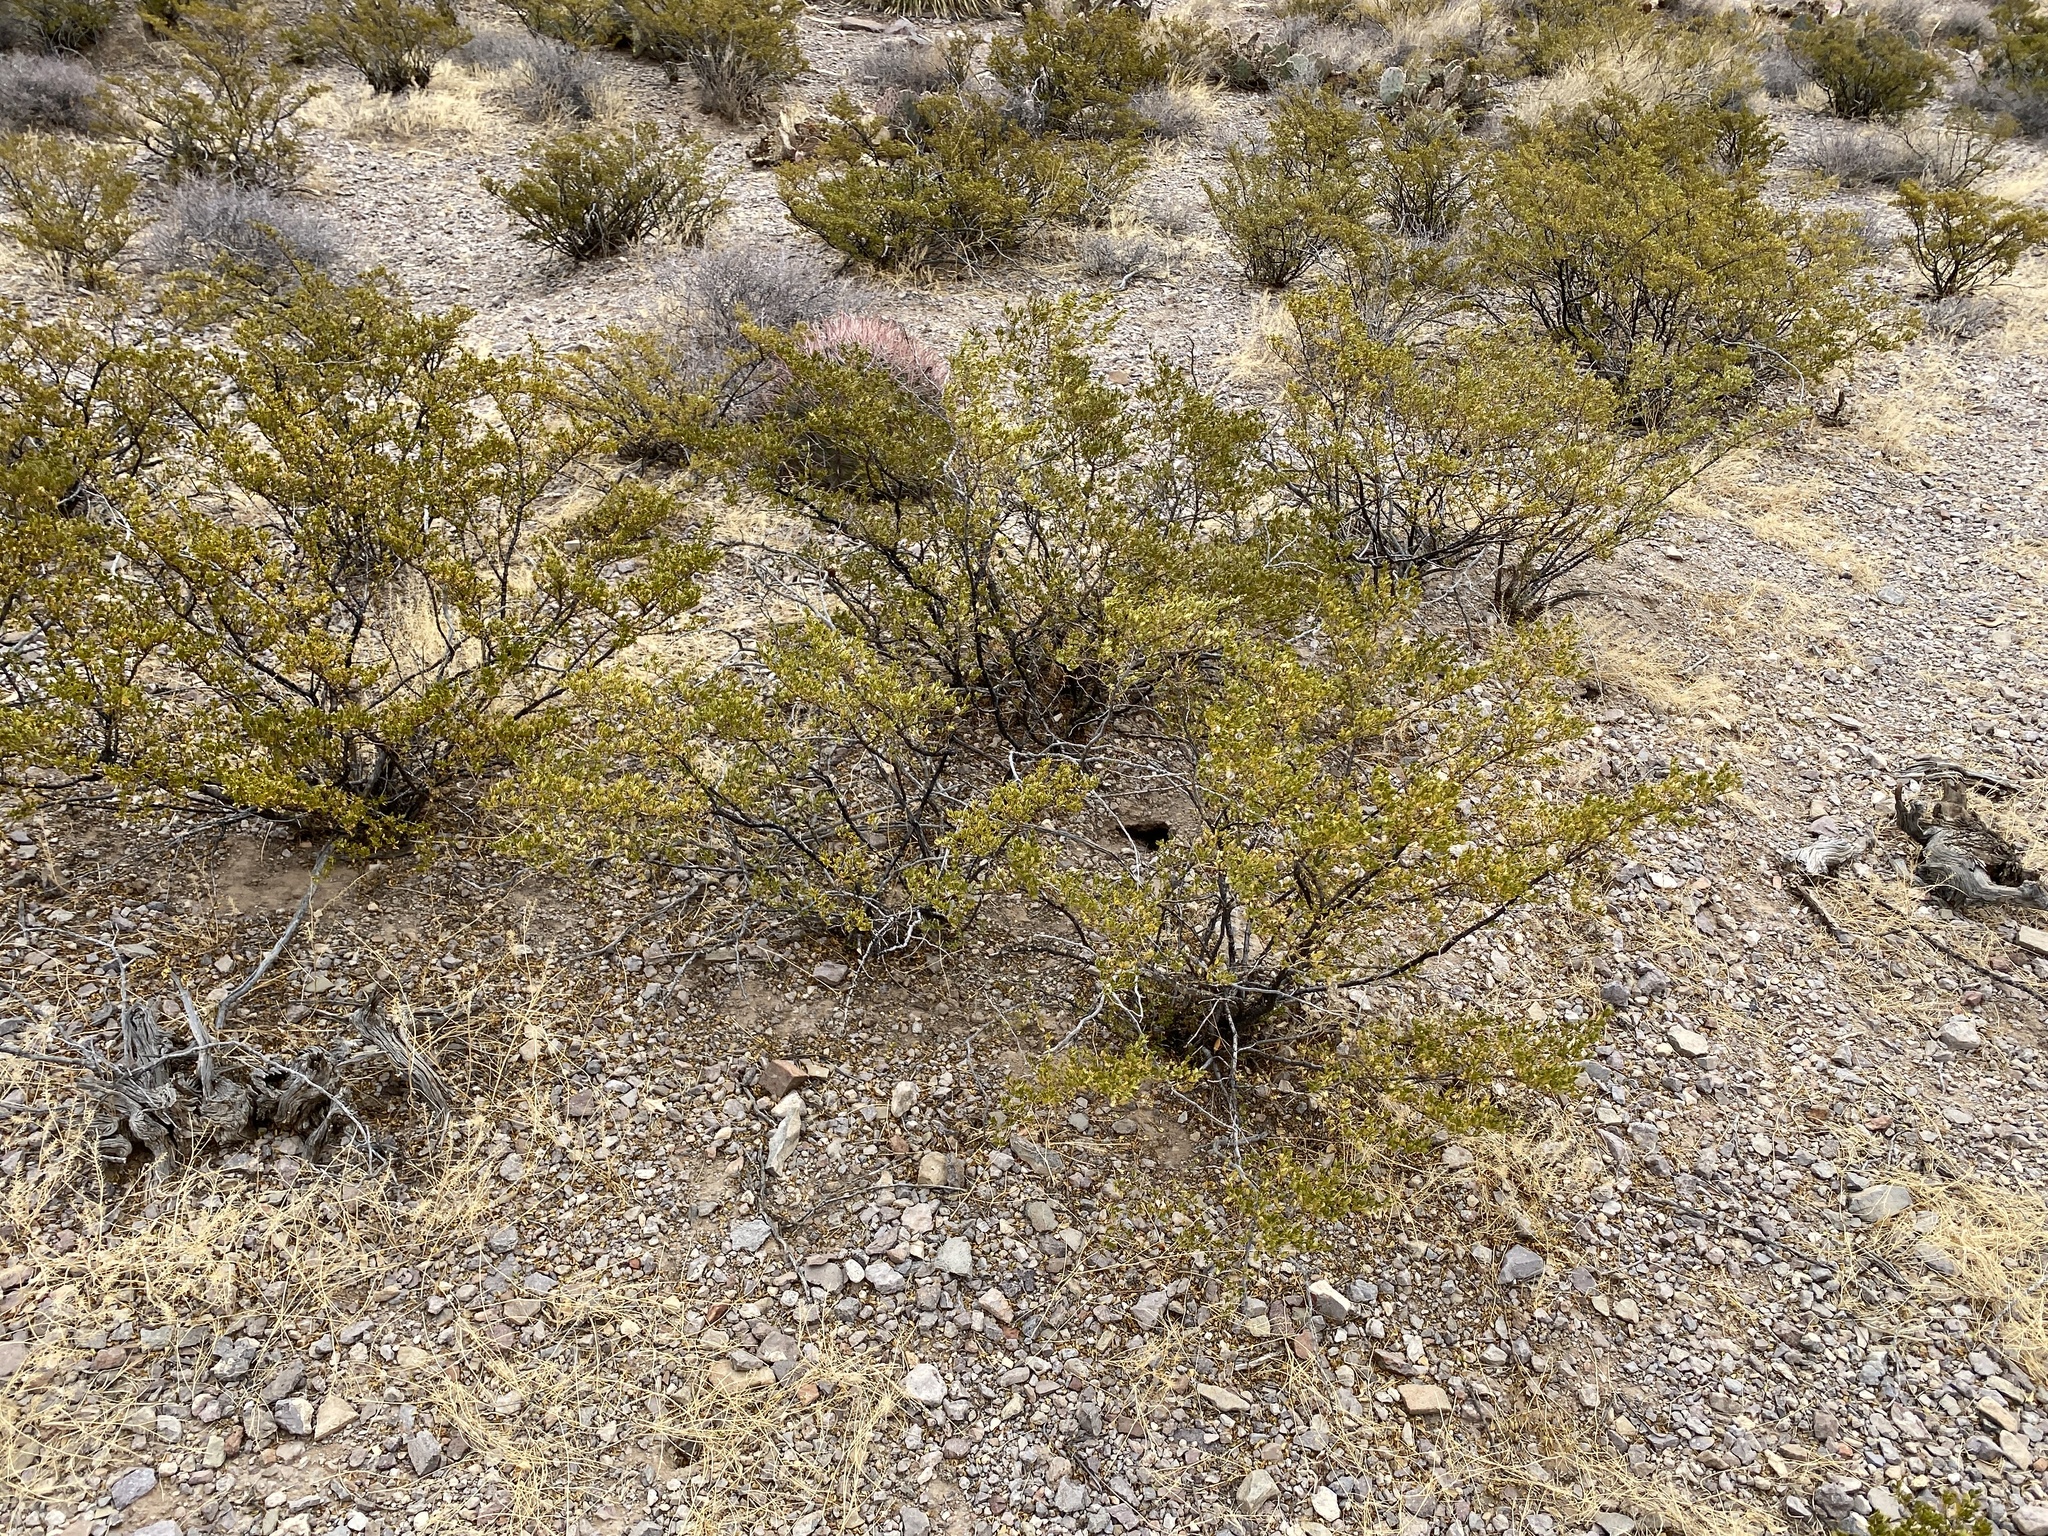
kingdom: Plantae
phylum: Tracheophyta
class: Magnoliopsida
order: Zygophyllales
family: Zygophyllaceae
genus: Larrea
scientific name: Larrea tridentata
